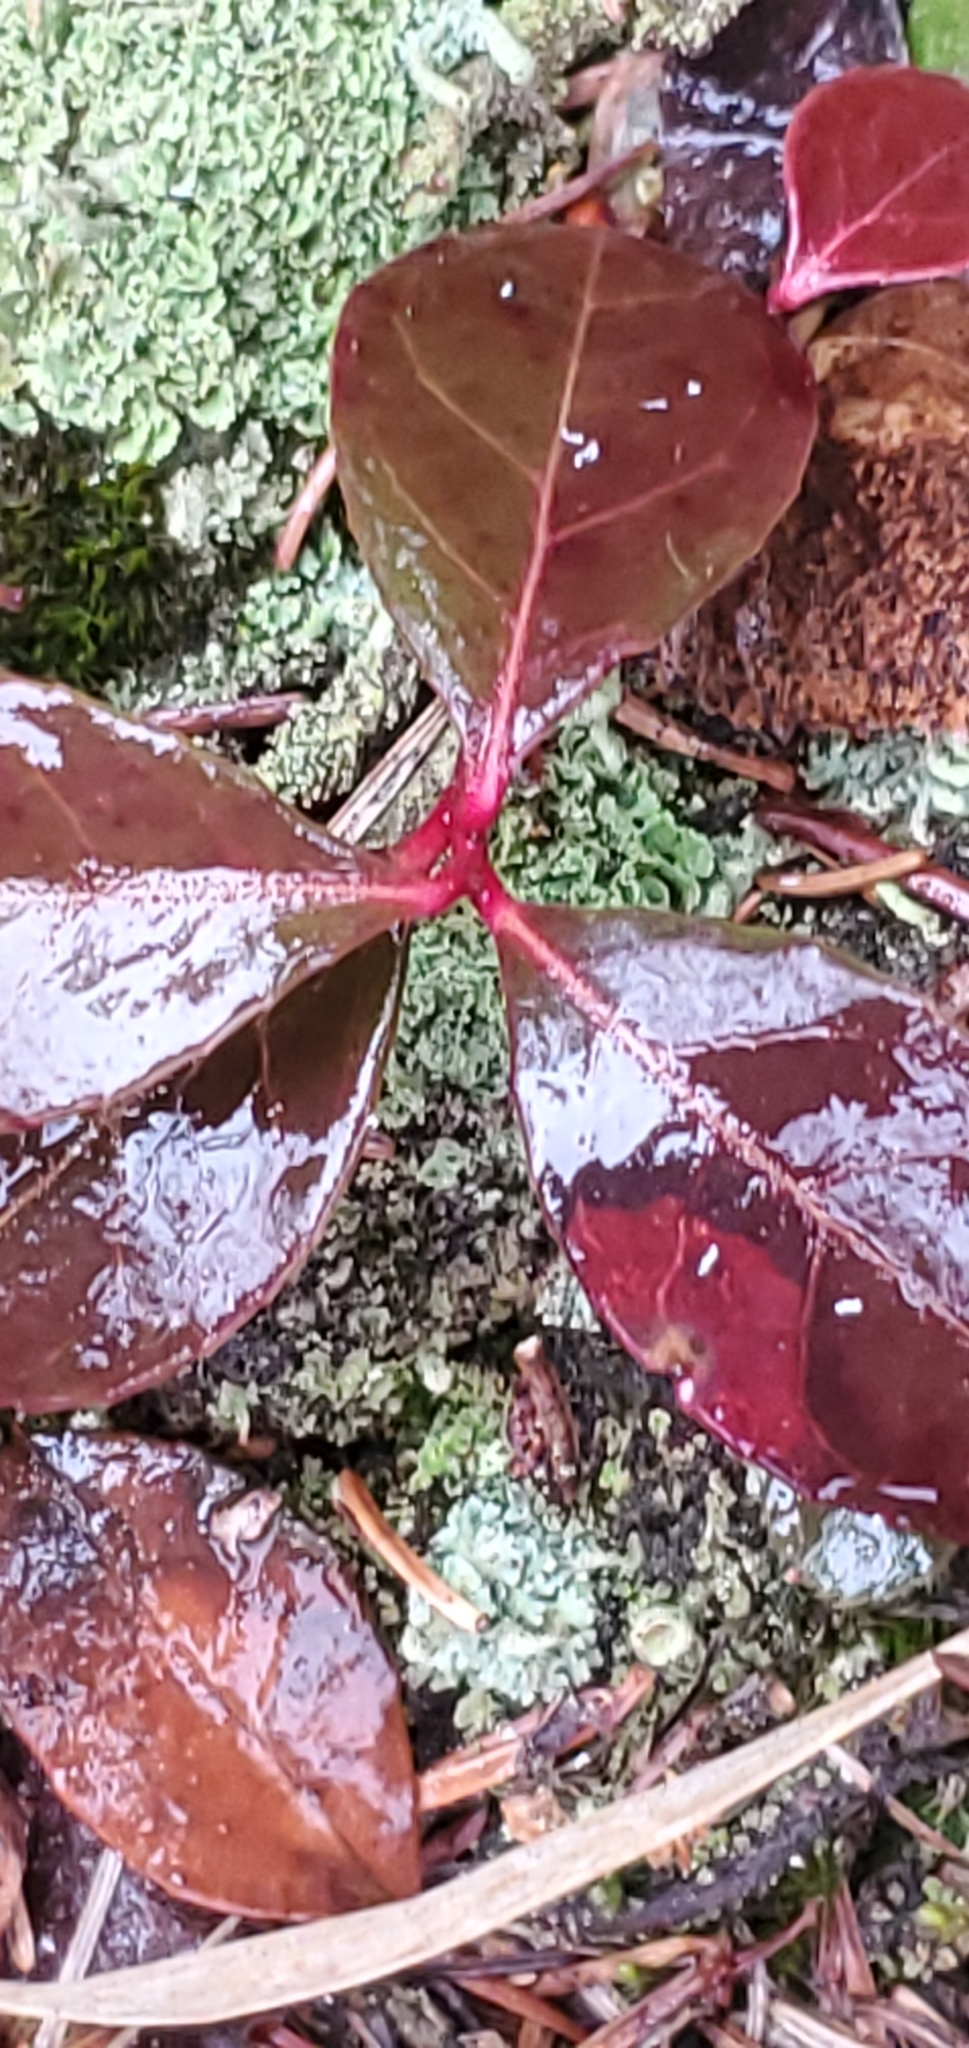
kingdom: Plantae
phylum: Tracheophyta
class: Magnoliopsida
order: Ericales
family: Ericaceae
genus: Gaultheria
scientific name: Gaultheria procumbens
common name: Checkerberry
